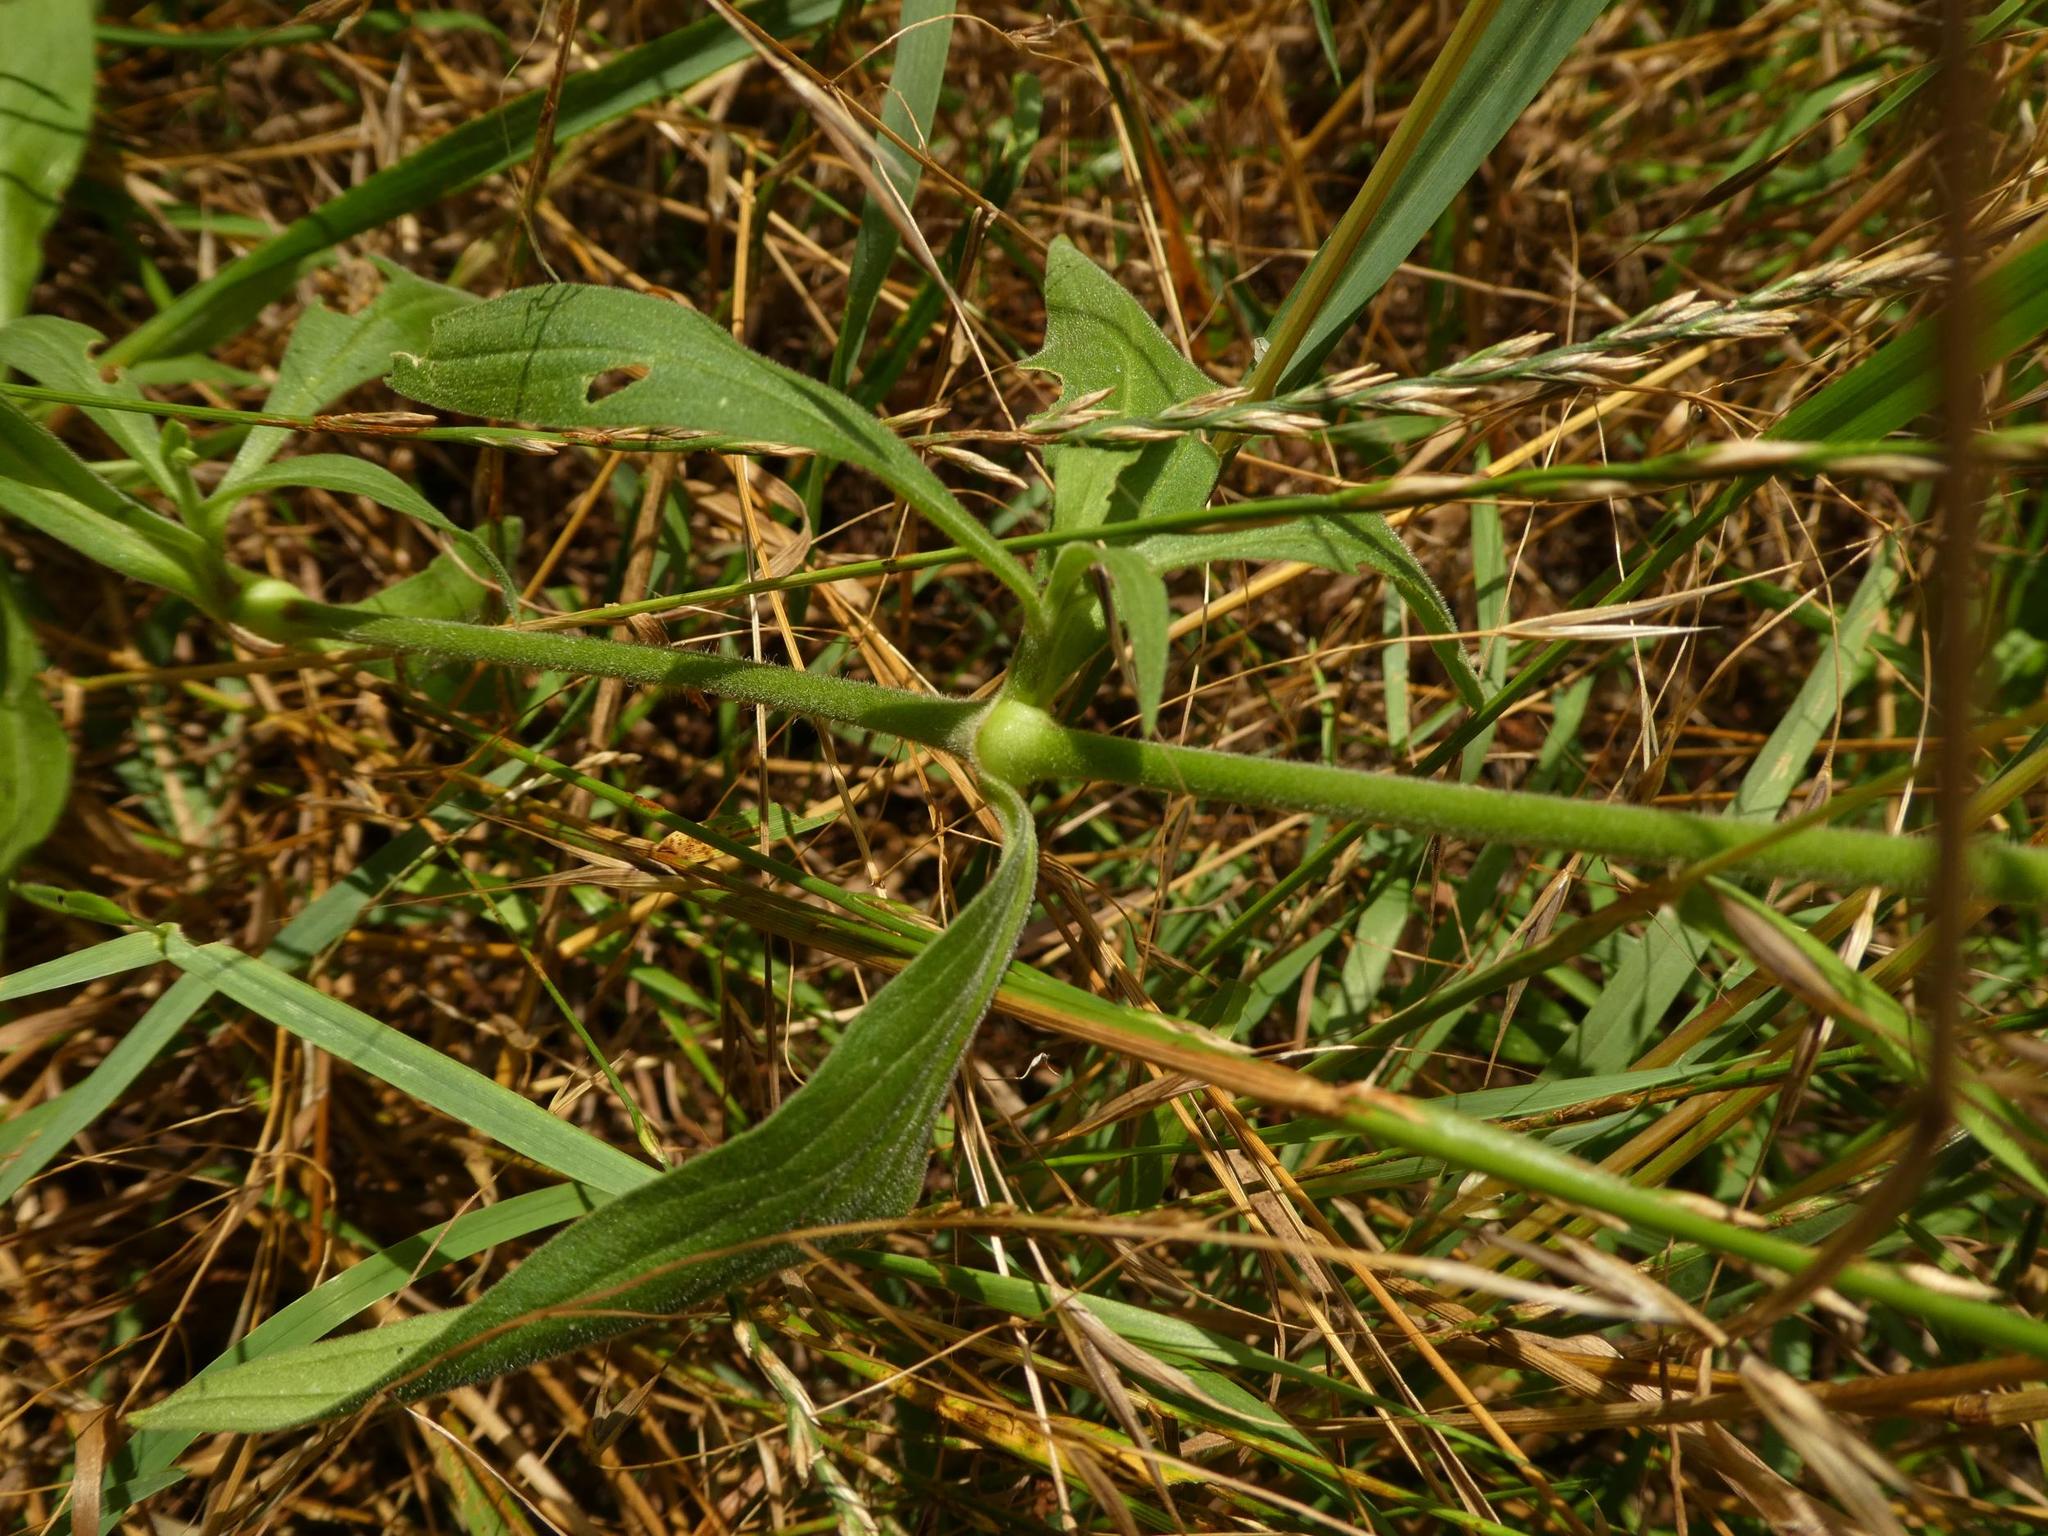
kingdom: Plantae
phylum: Tracheophyta
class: Magnoliopsida
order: Caryophyllales
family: Caryophyllaceae
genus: Silene
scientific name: Silene latifolia
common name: White campion
